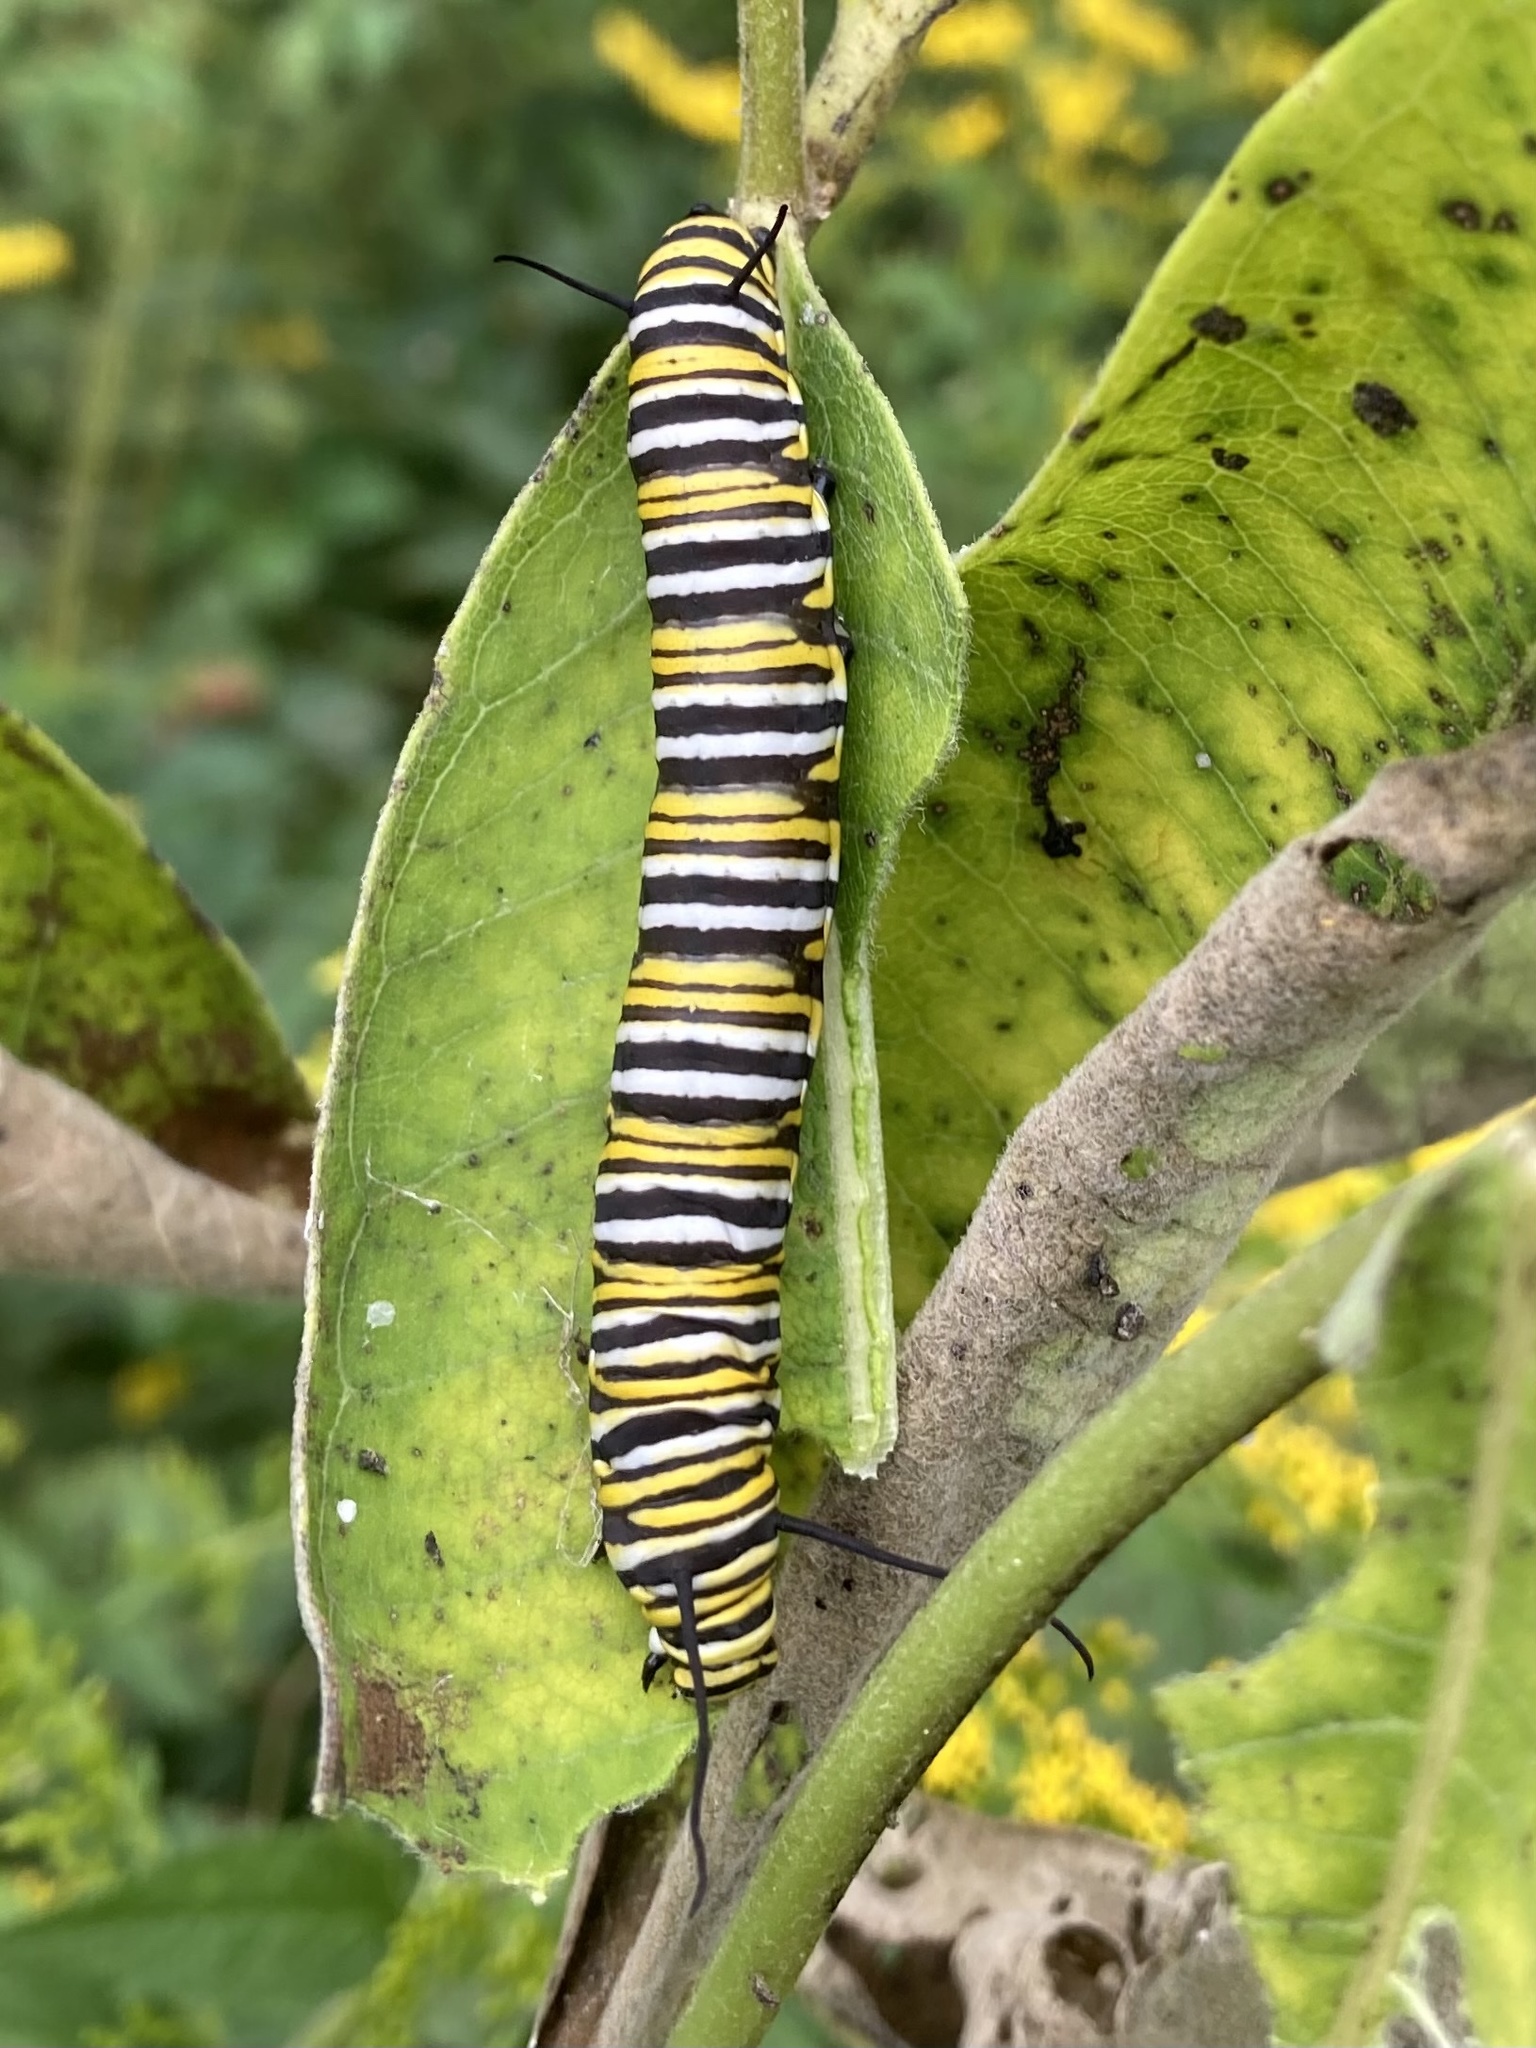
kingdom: Animalia
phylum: Arthropoda
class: Insecta
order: Lepidoptera
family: Nymphalidae
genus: Danaus
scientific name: Danaus plexippus
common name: Monarch
